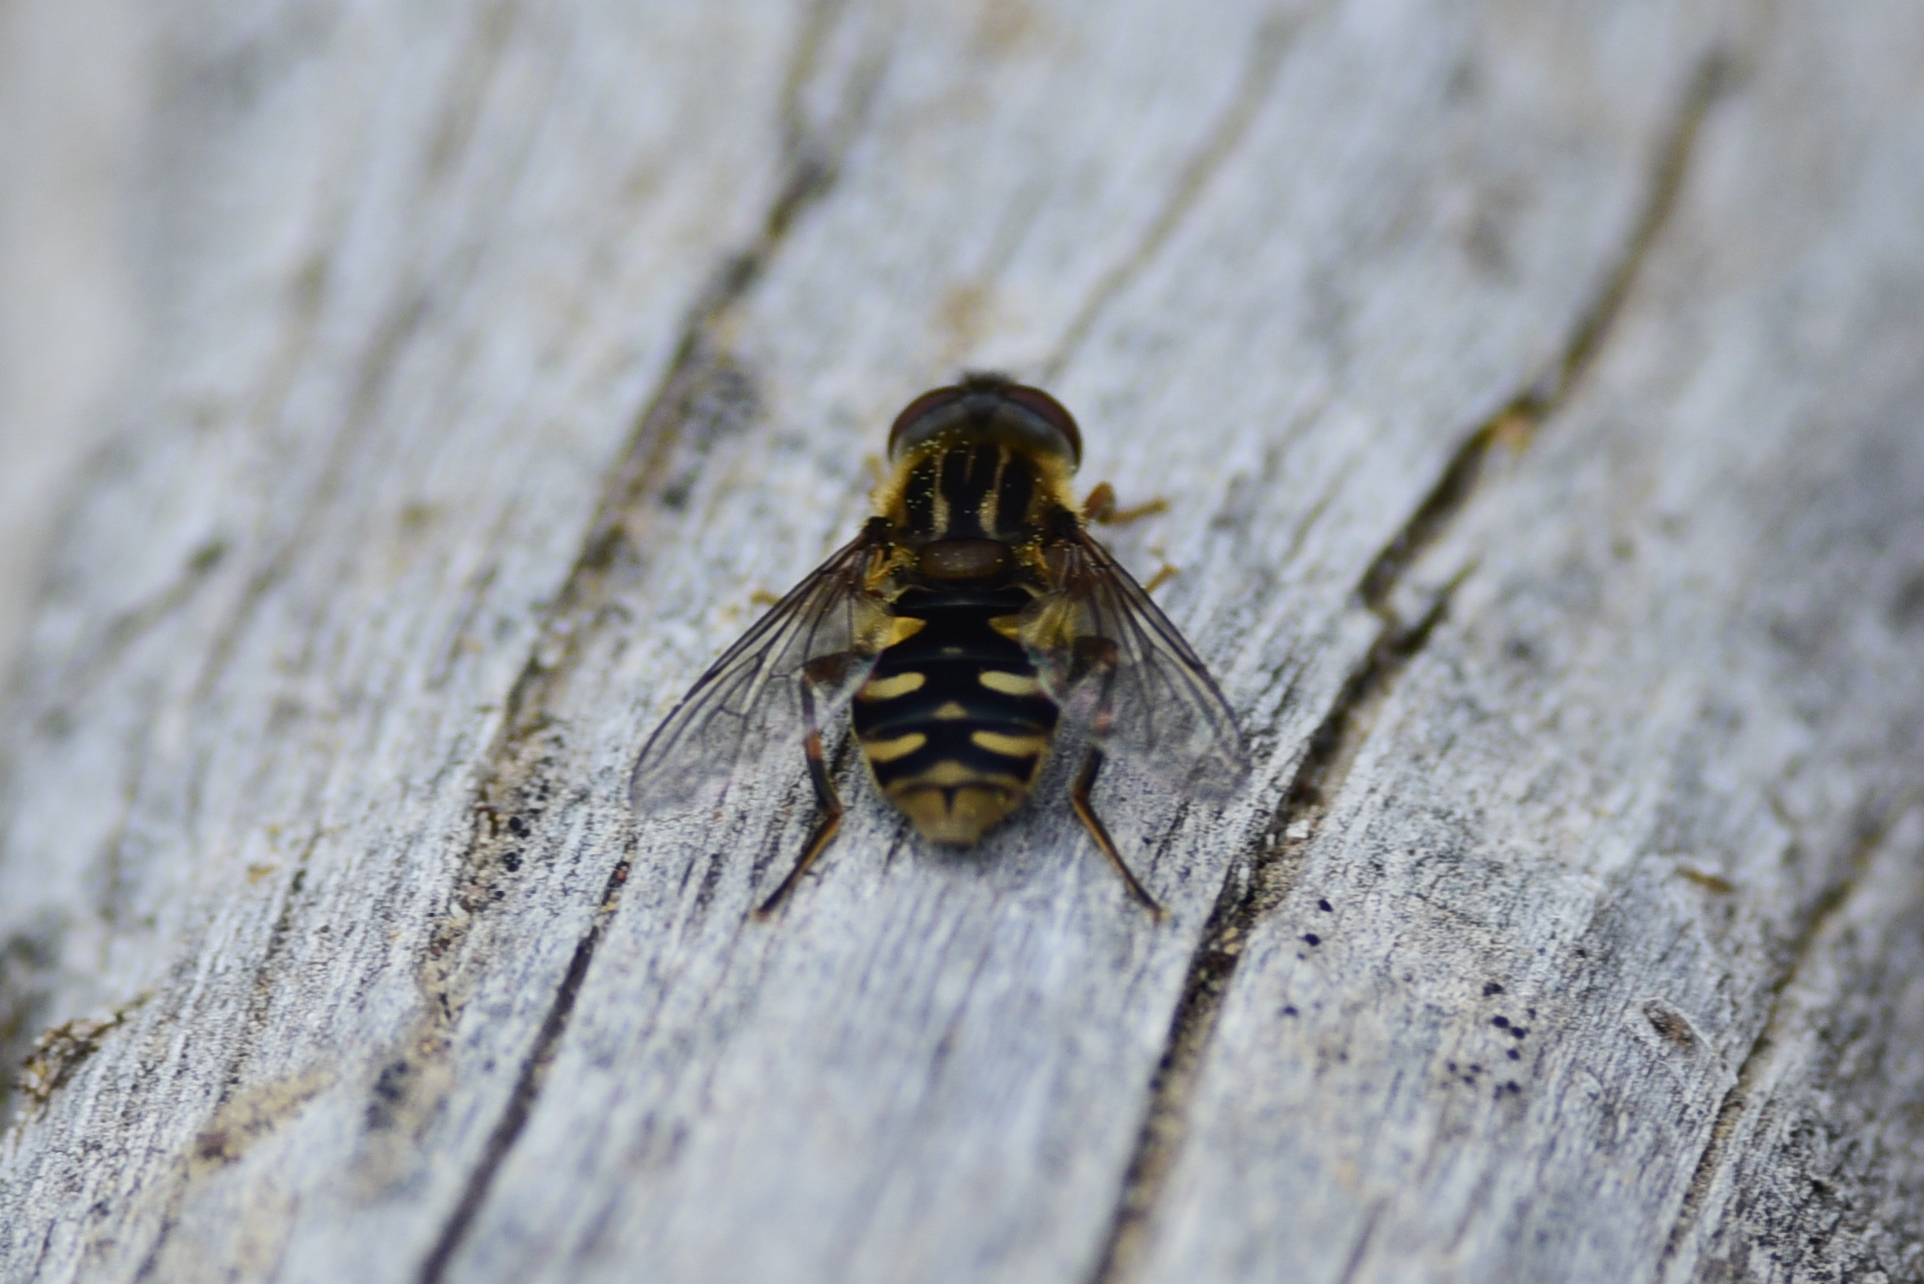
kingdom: Animalia
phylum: Arthropoda
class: Insecta
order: Diptera
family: Syrphidae
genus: Parhelophilus
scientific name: Parhelophilus rex
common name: Dusky bog fly
